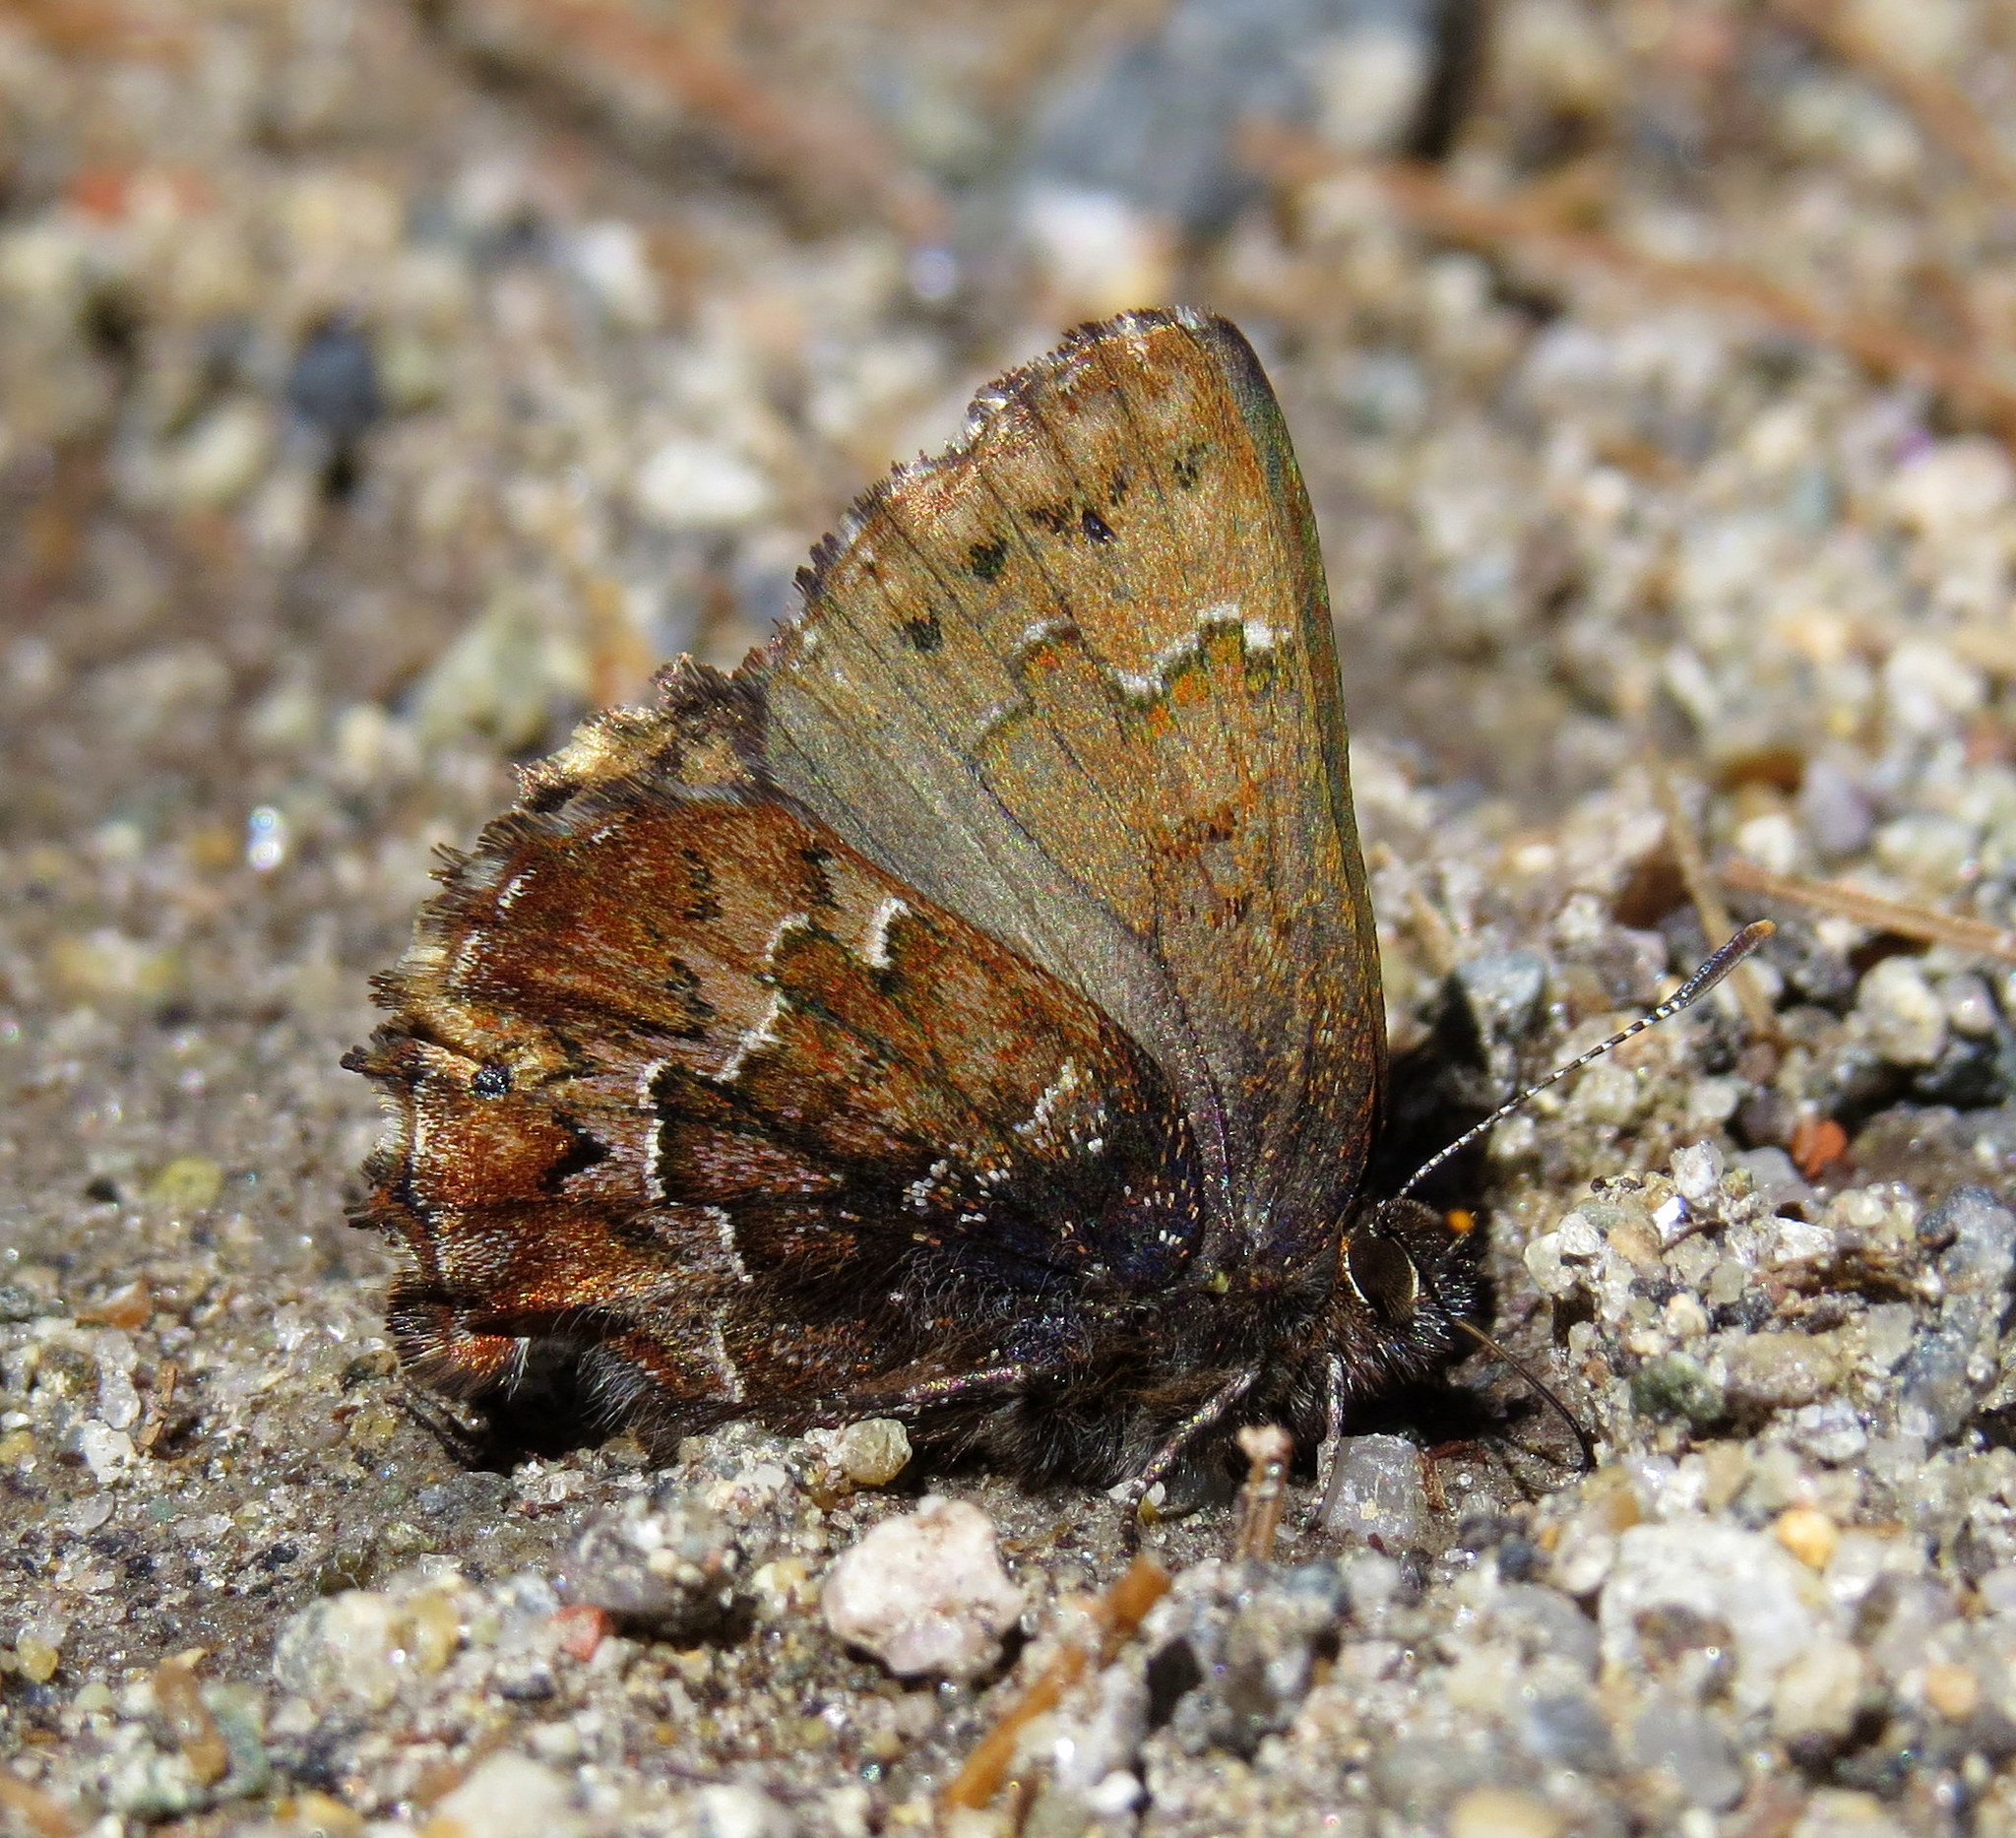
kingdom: Animalia
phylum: Arthropoda
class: Insecta
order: Lepidoptera
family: Lycaenidae
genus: Incisalia
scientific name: Incisalia niphon
